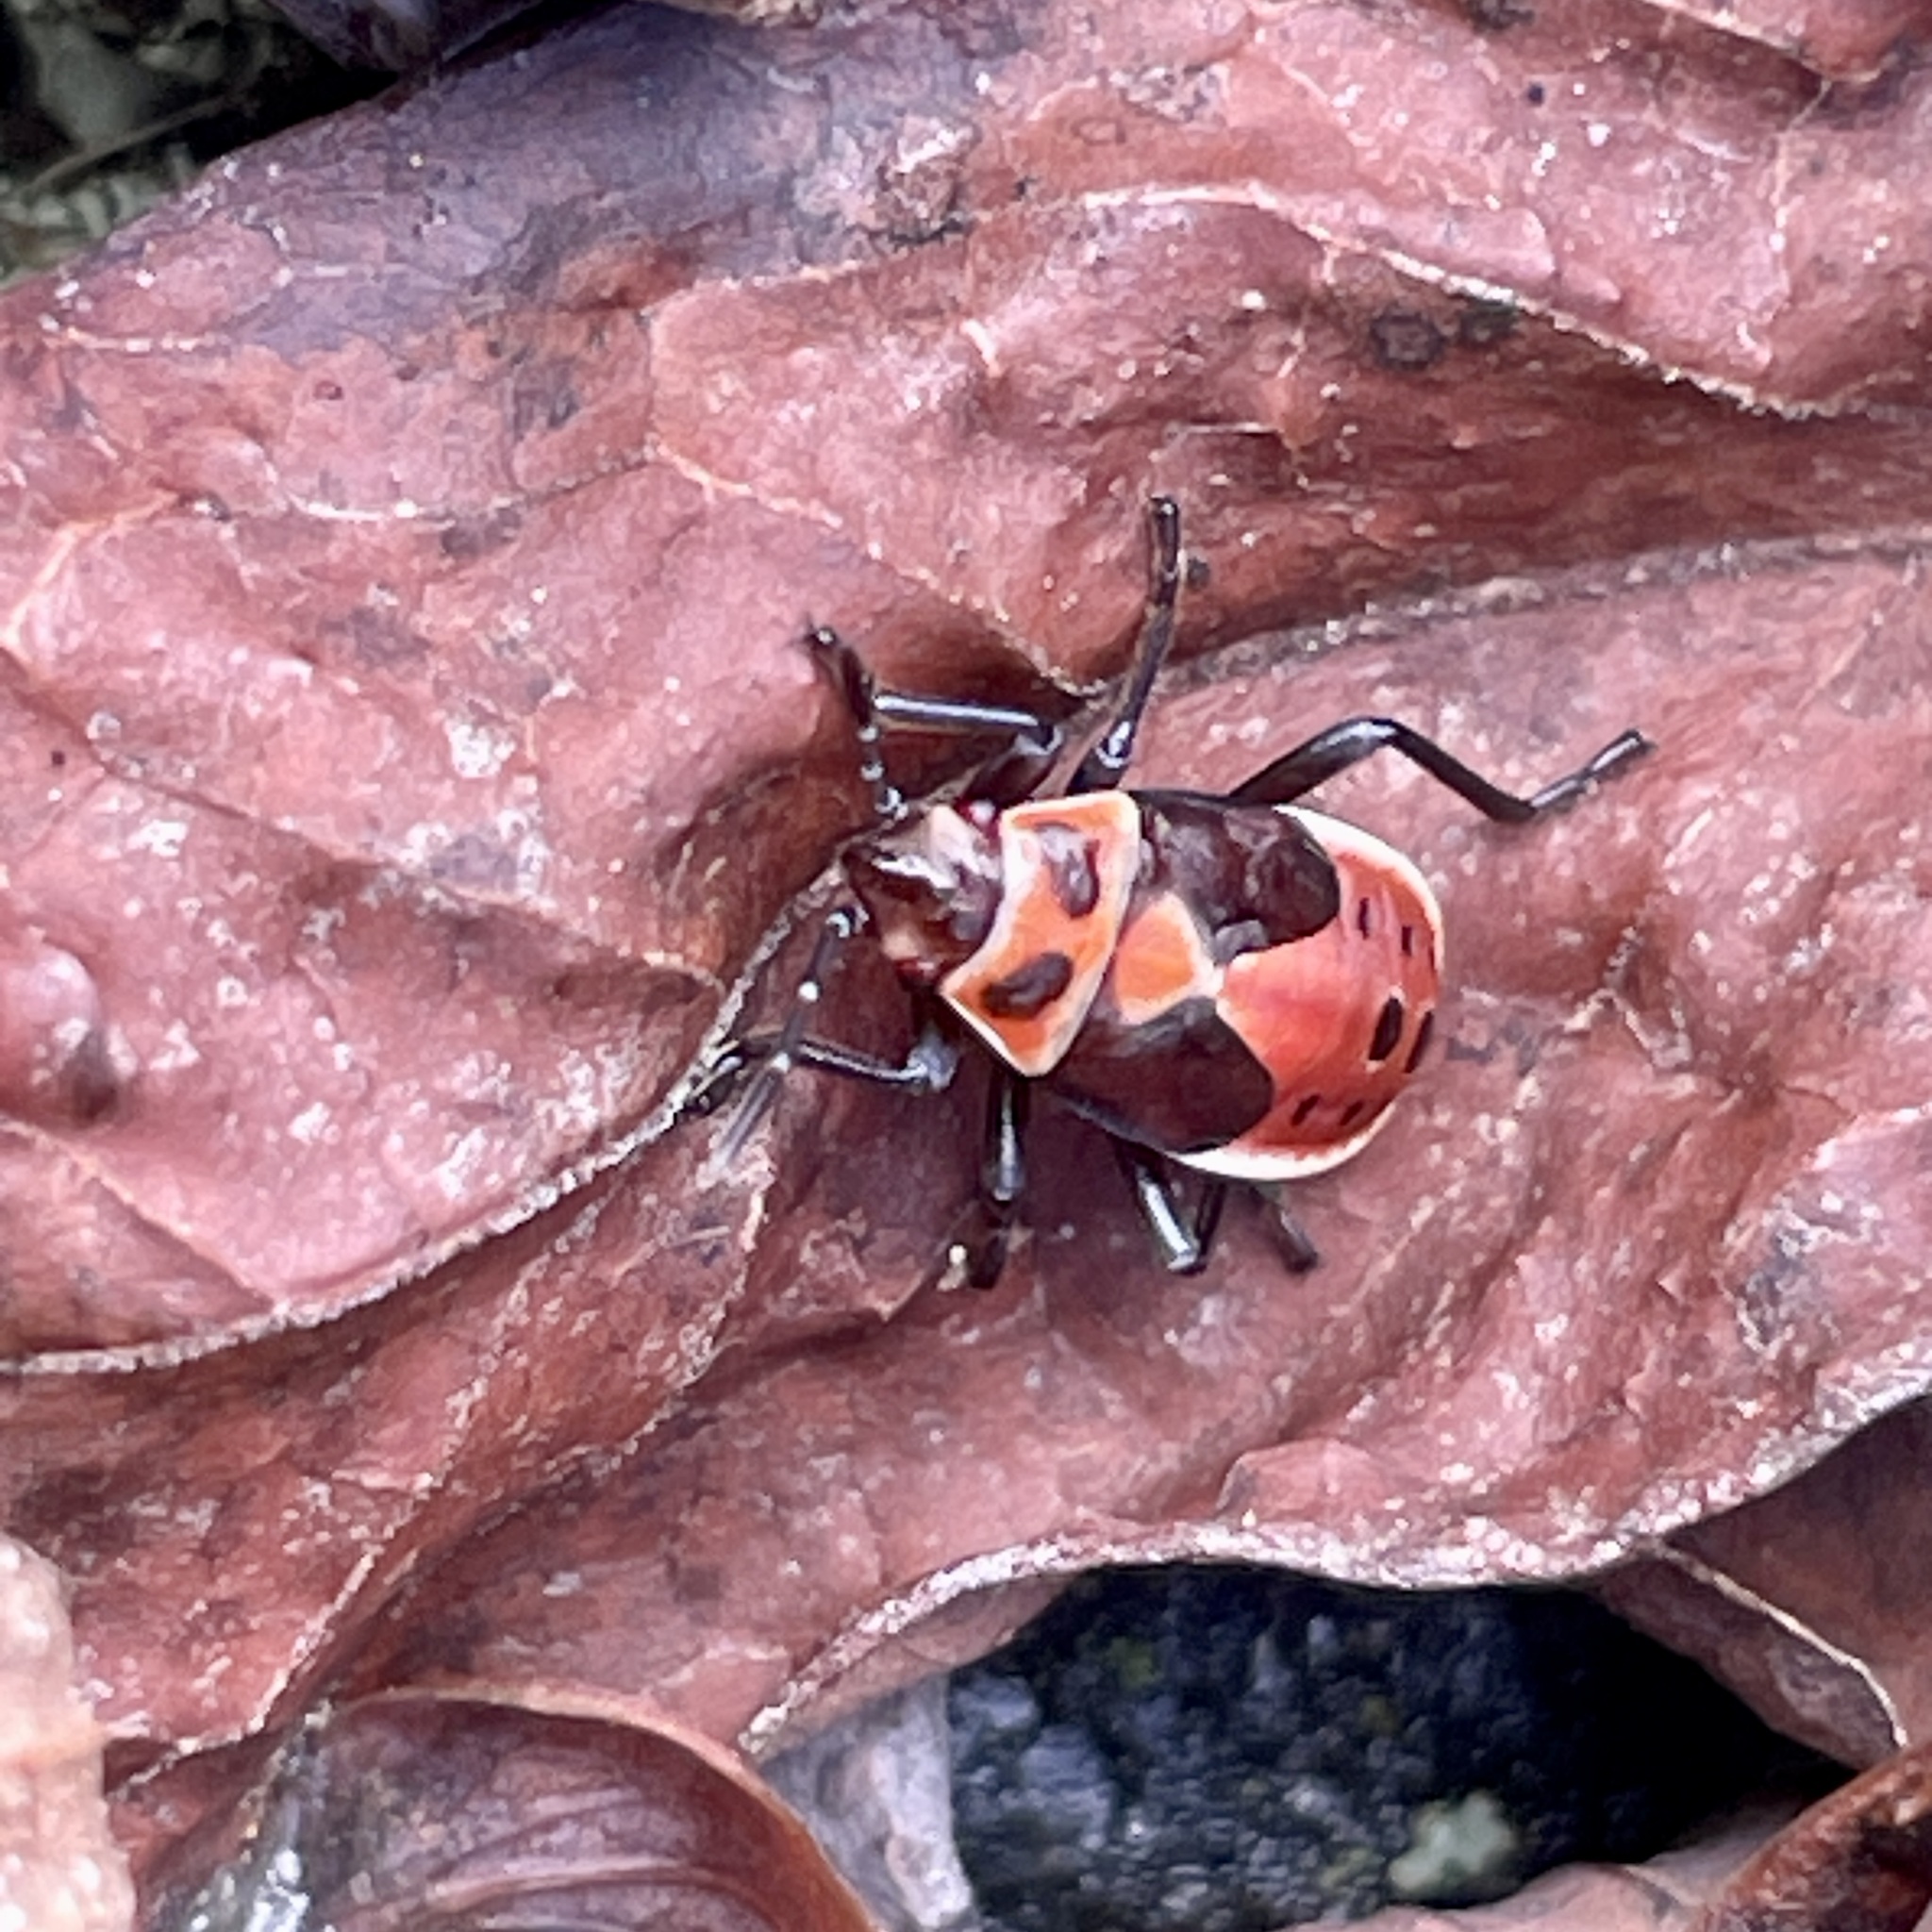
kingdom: Animalia
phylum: Arthropoda
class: Insecta
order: Hemiptera
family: Lygaeidae
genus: Lygaeus
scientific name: Lygaeus kalmii
